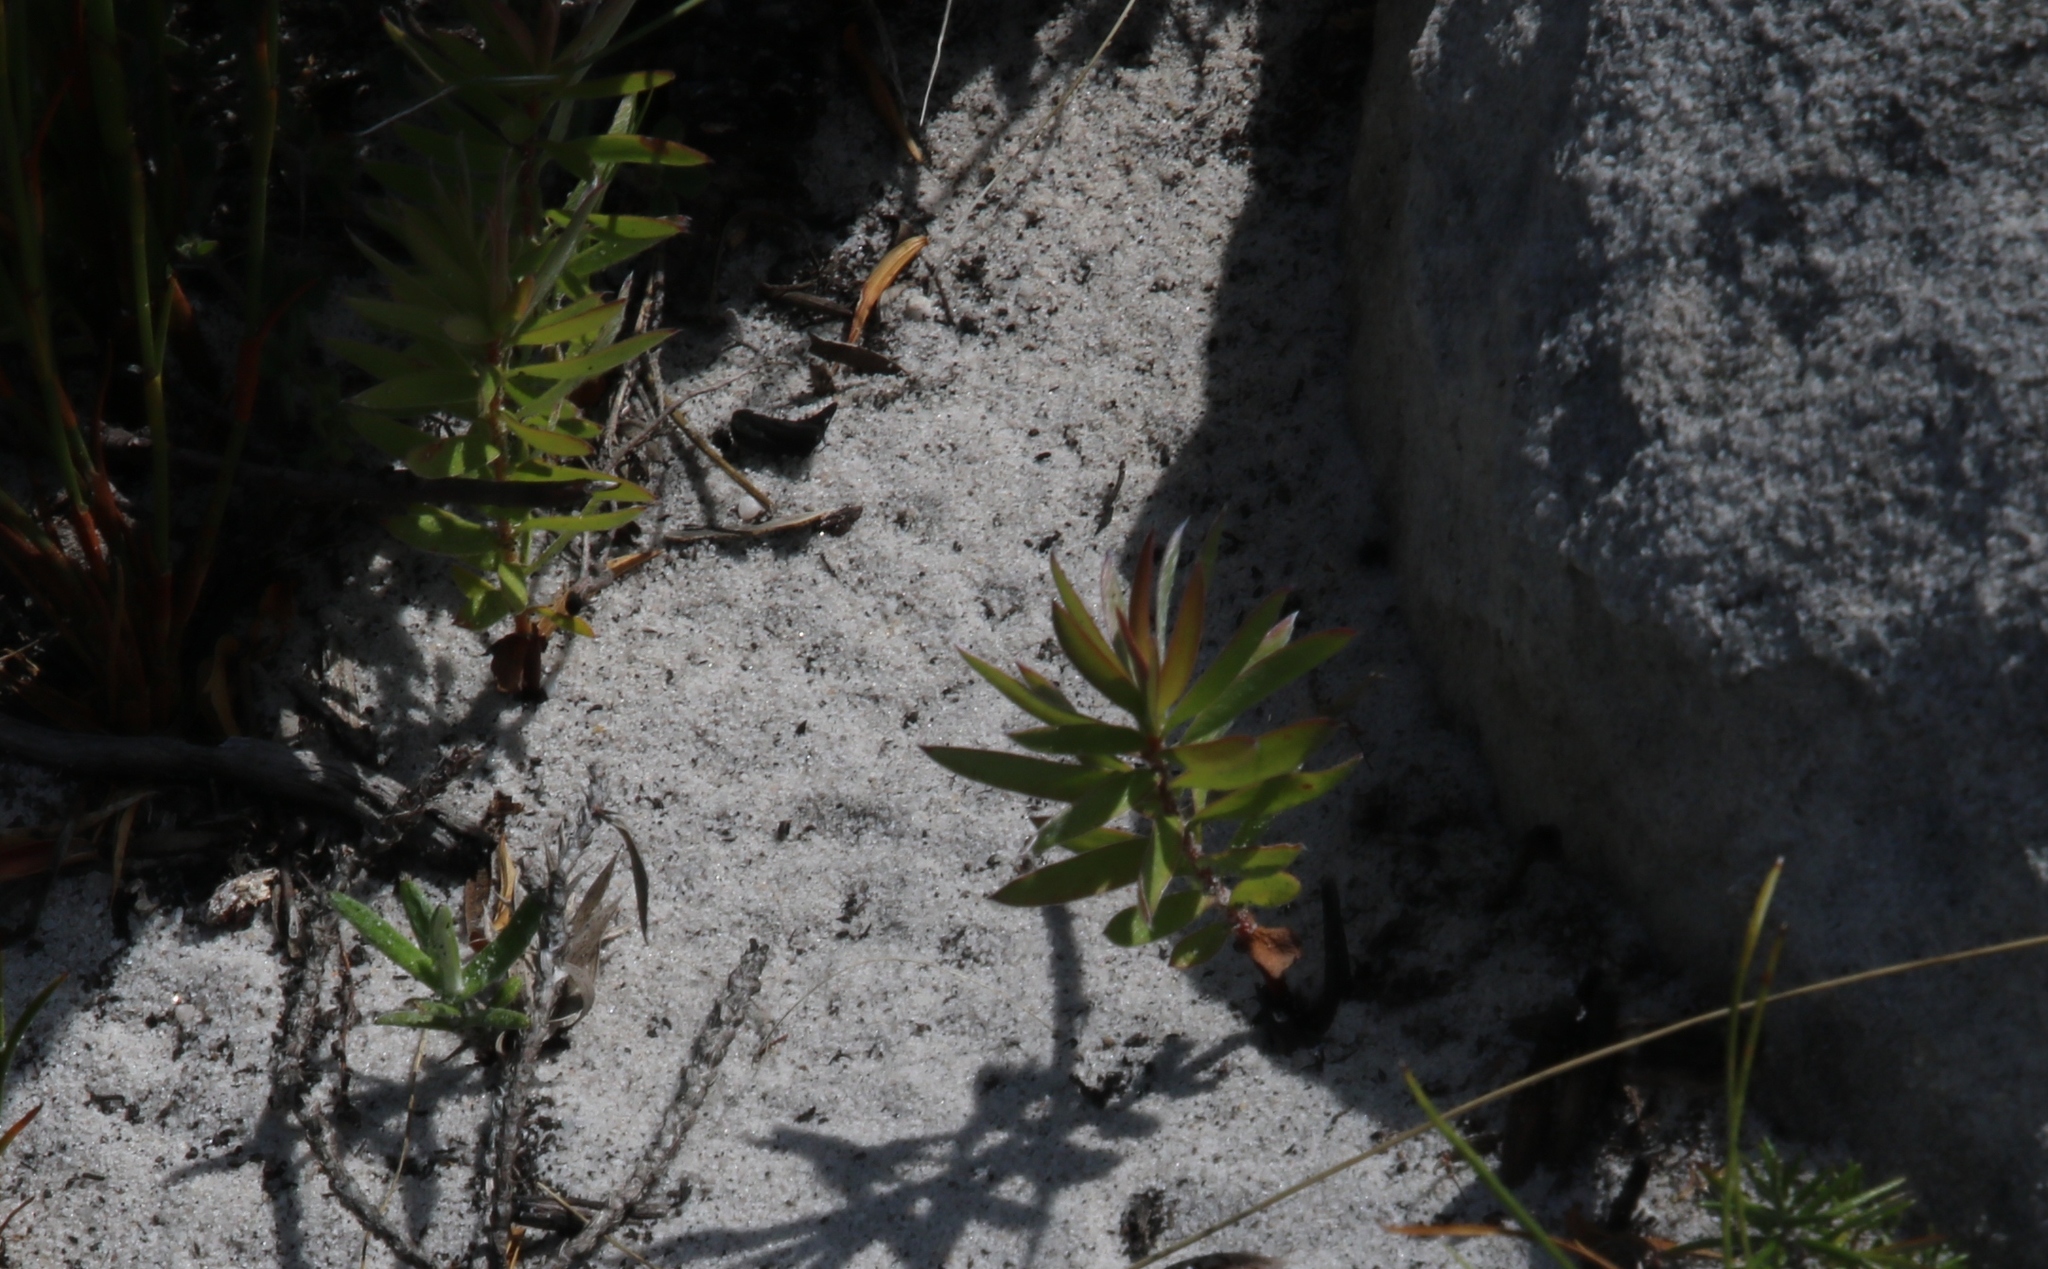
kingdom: Plantae
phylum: Tracheophyta
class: Magnoliopsida
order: Proteales
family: Proteaceae
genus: Leucadendron
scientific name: Leucadendron xanthoconus
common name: Sickle-leaf conebush
